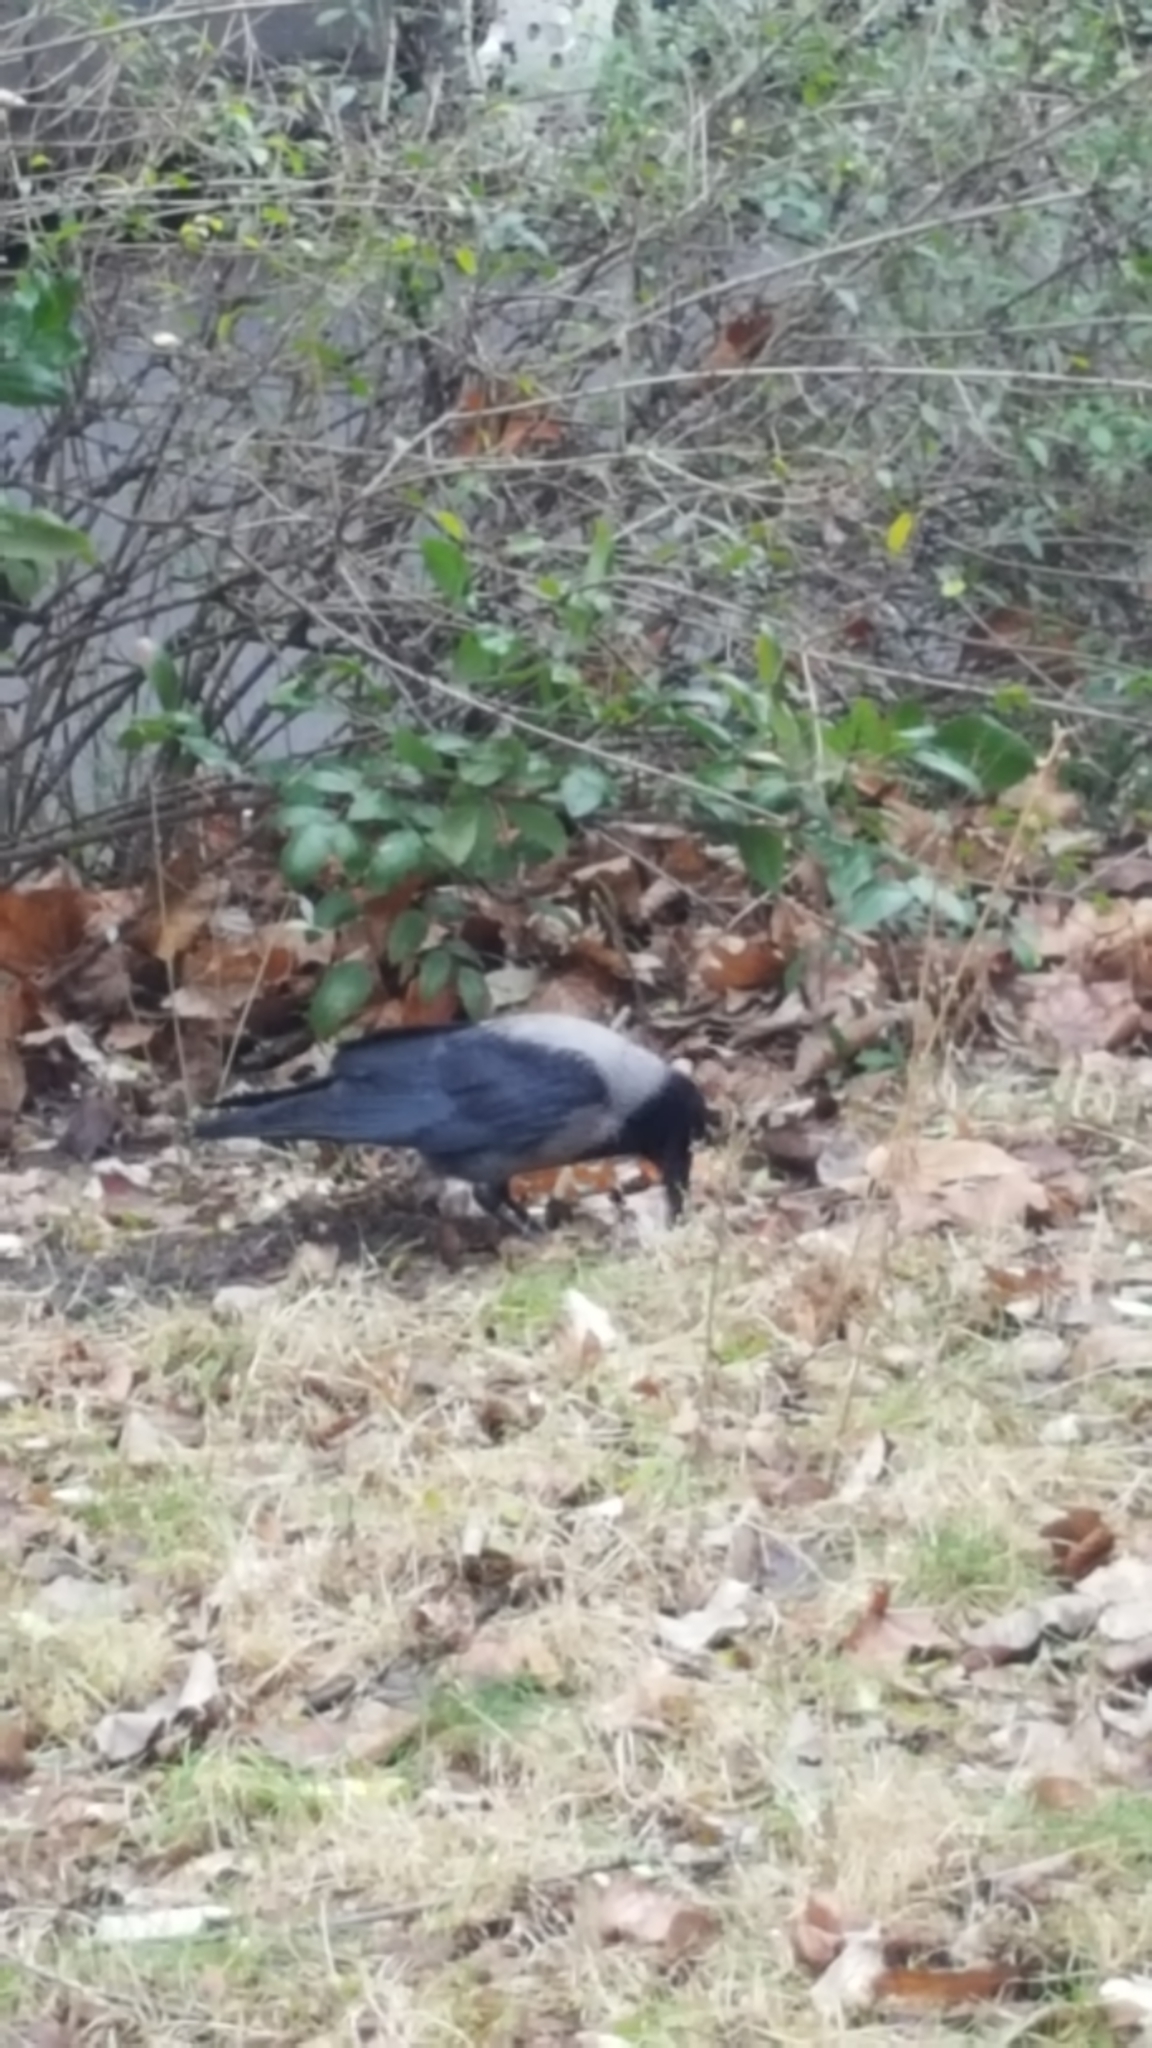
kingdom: Animalia
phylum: Chordata
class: Aves
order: Passeriformes
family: Corvidae
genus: Corvus
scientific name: Corvus cornix
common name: Hooded crow
